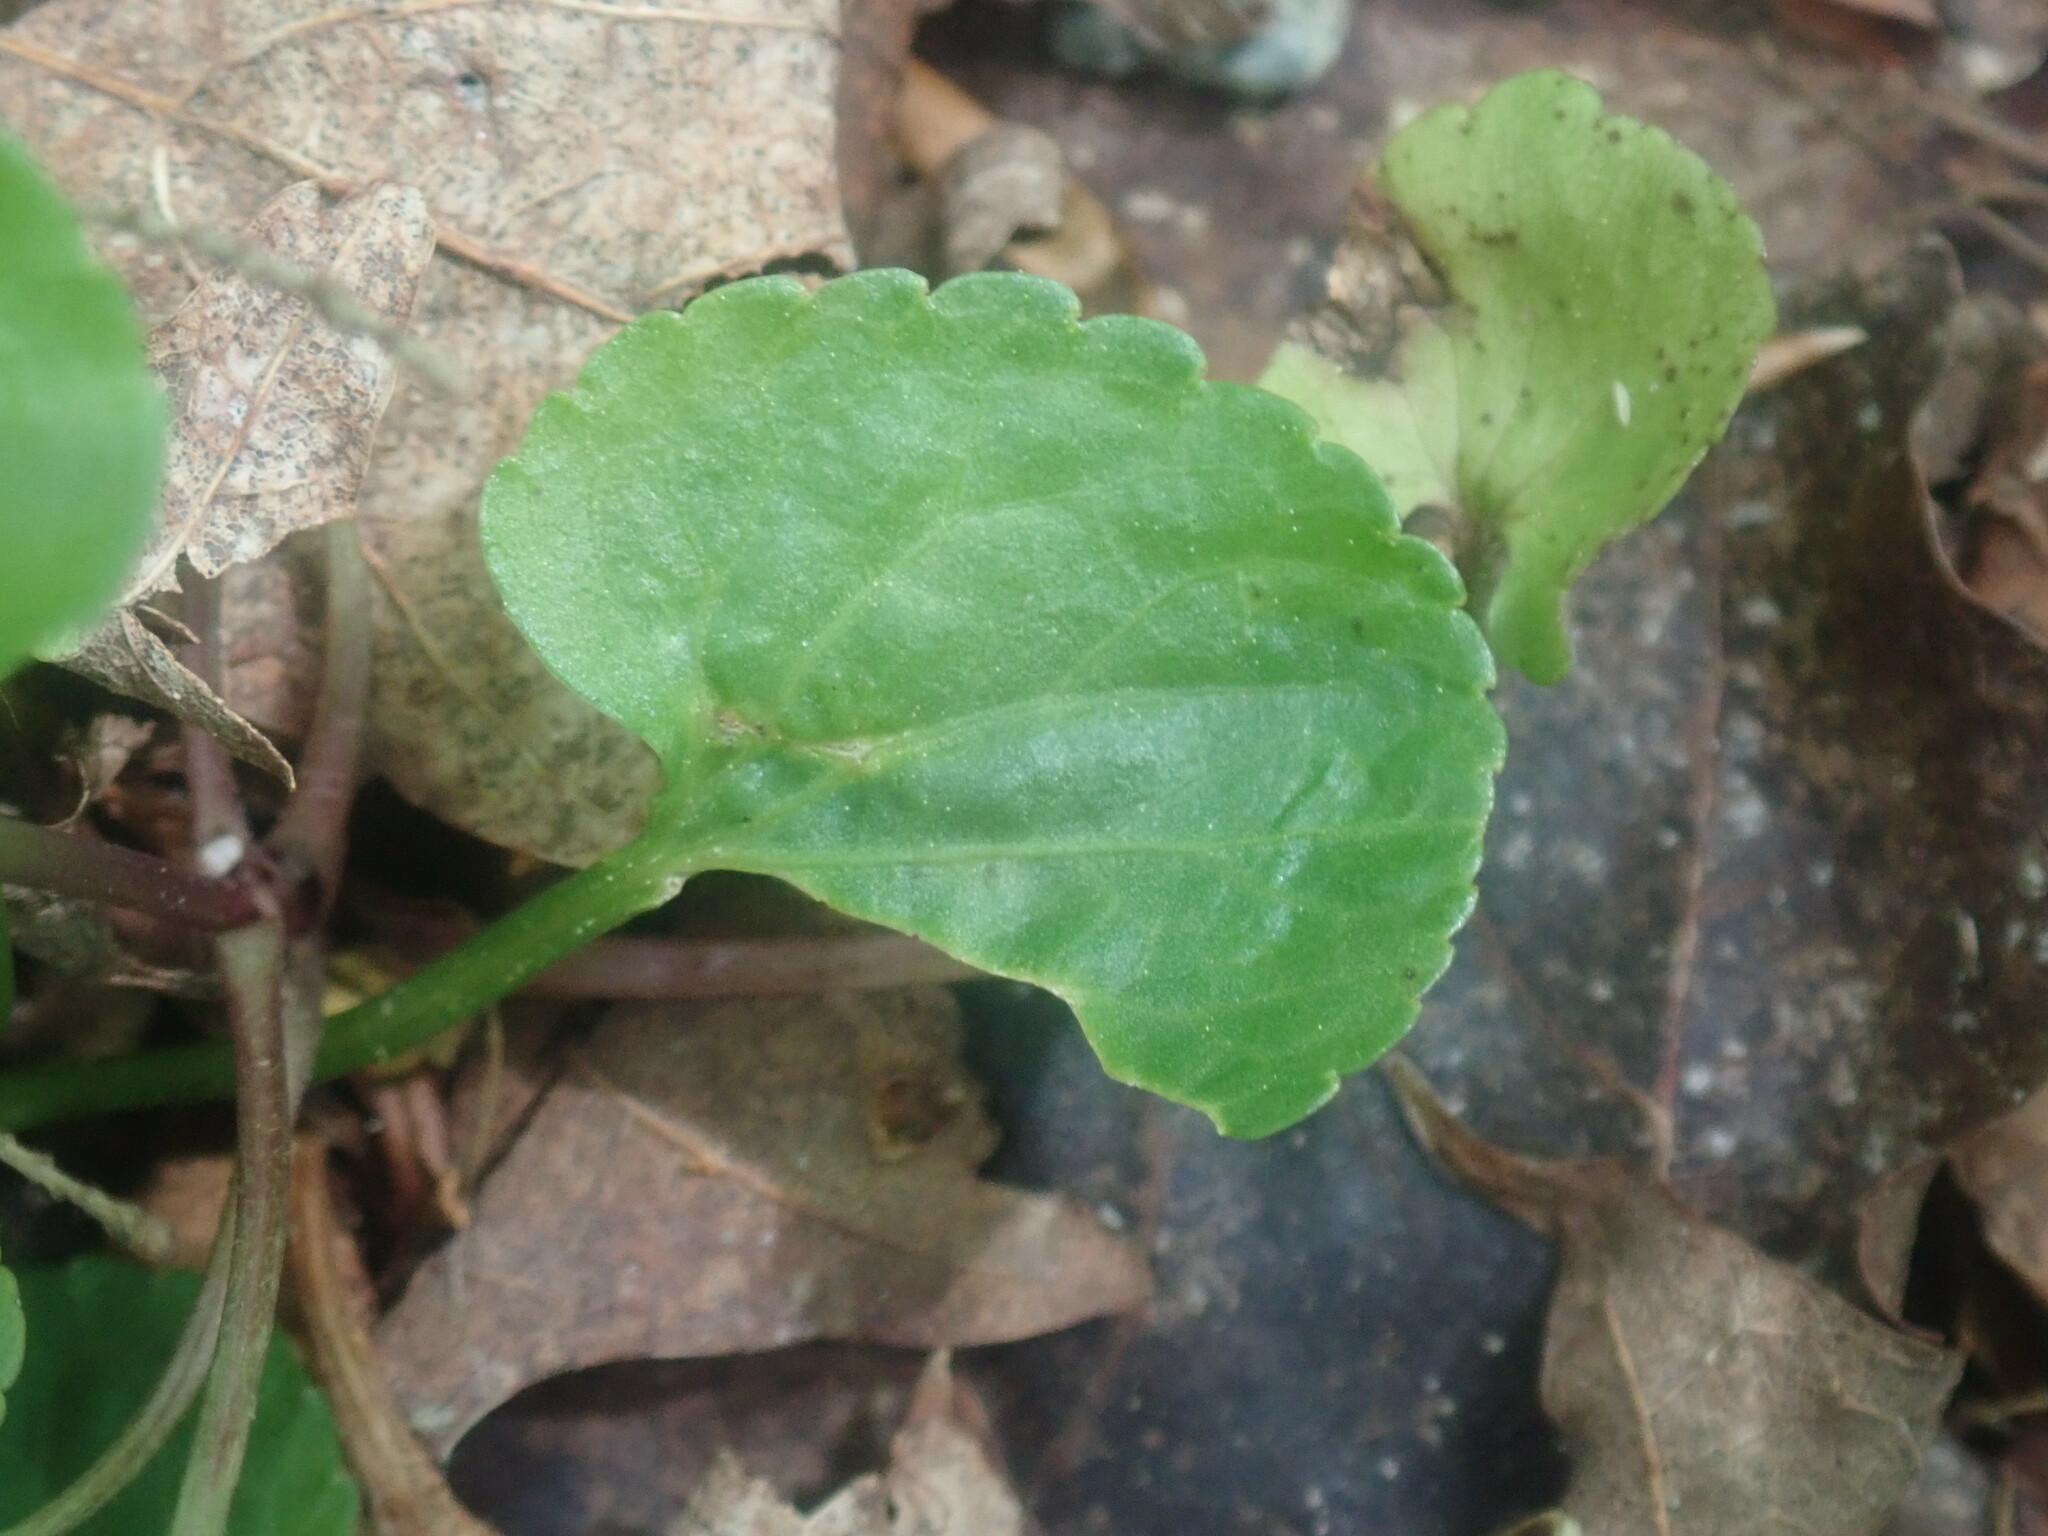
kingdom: Plantae
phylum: Tracheophyta
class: Magnoliopsida
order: Ranunculales
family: Ranunculaceae
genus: Ranunculus
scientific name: Ranunculus abortivus
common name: Early wood buttercup
